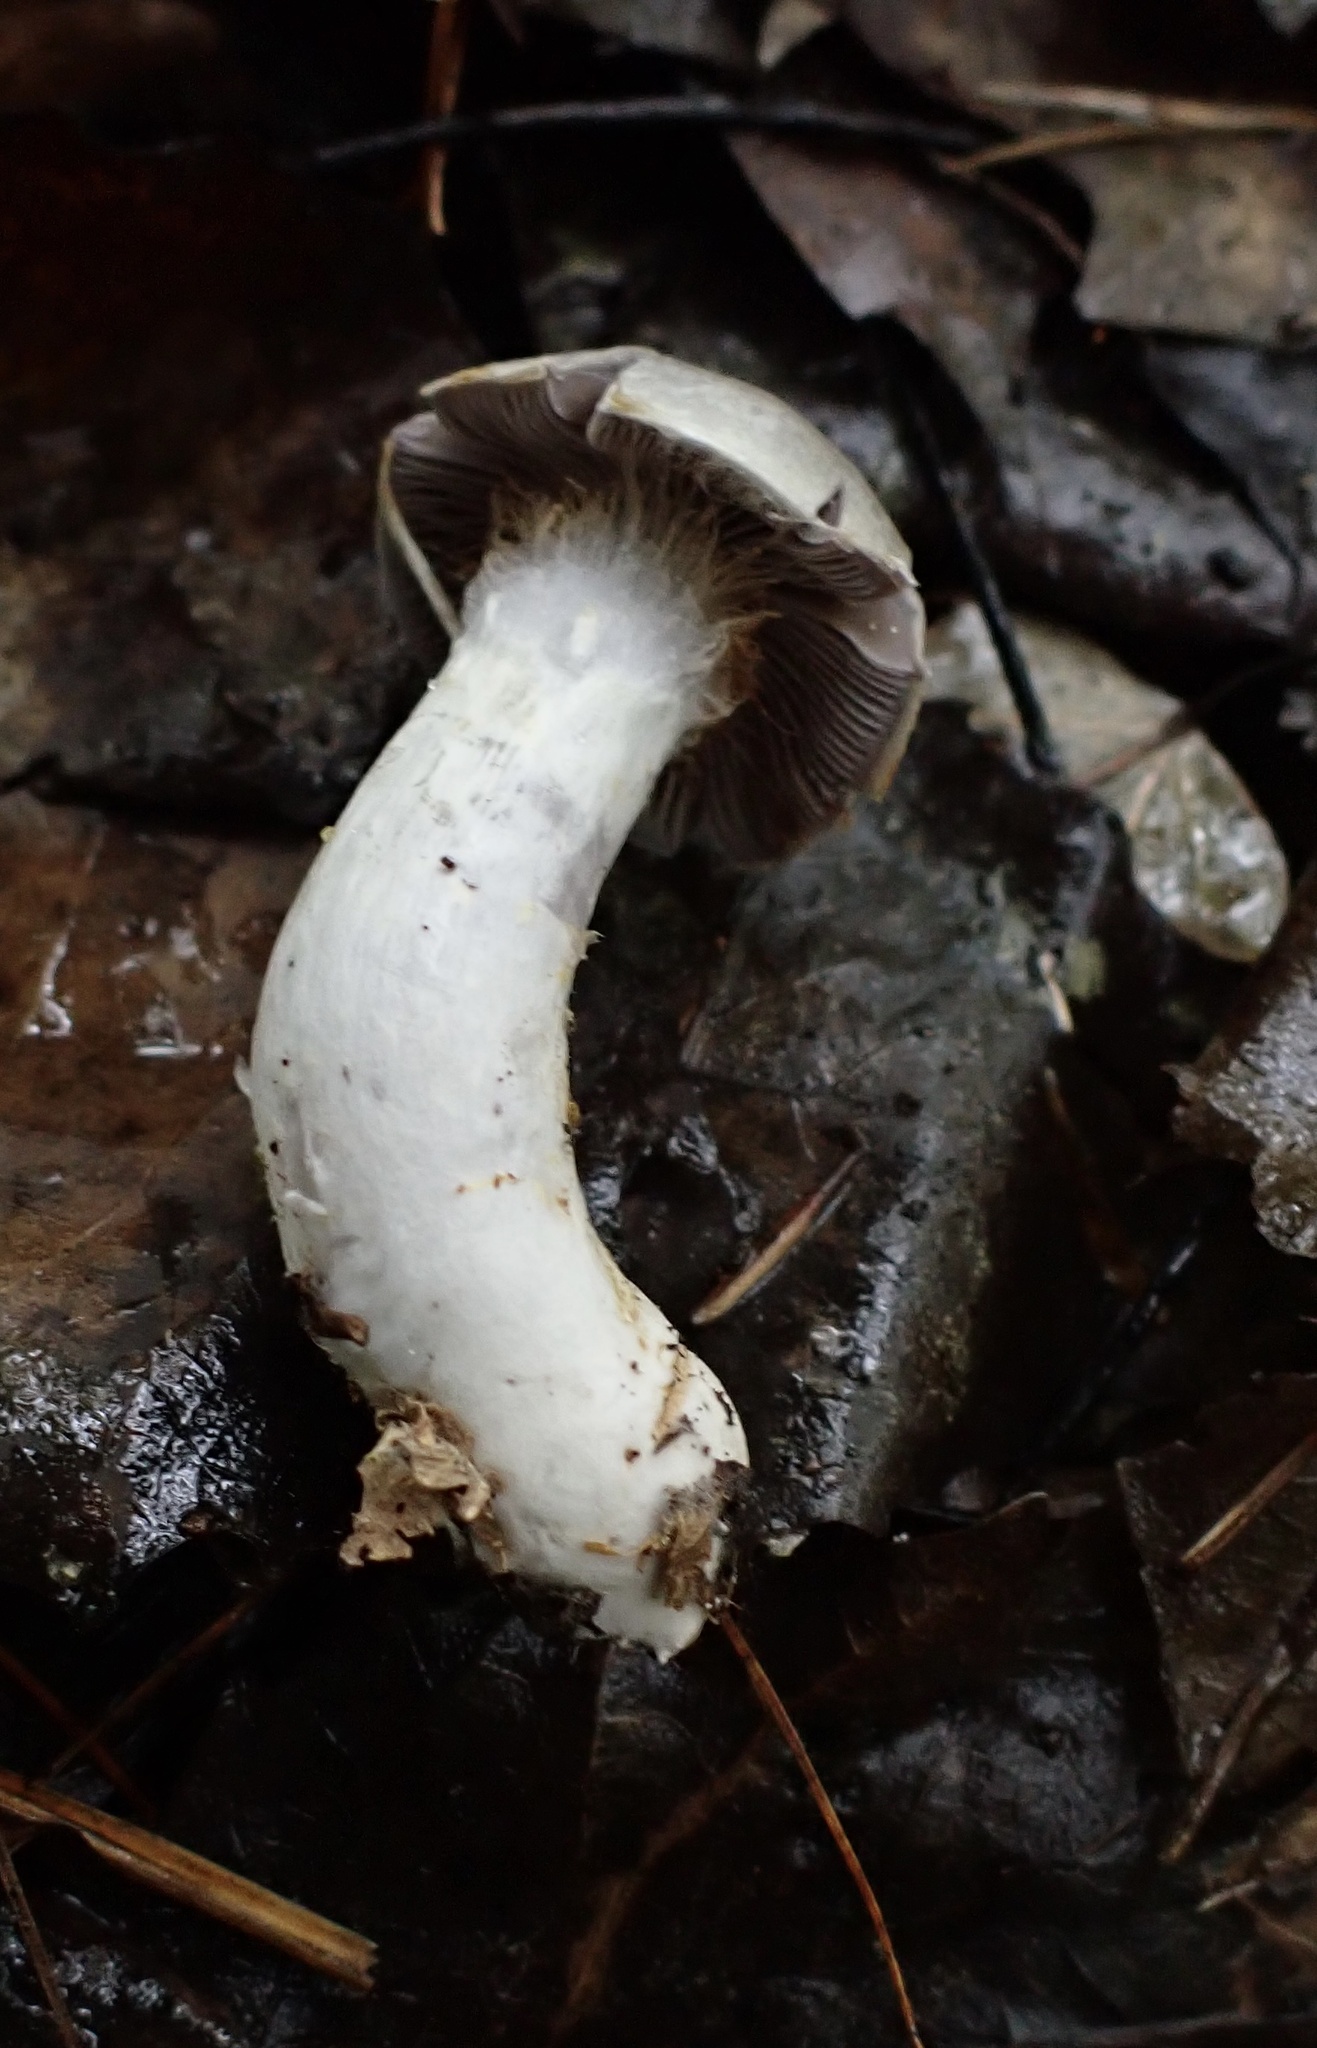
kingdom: Fungi
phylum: Basidiomycota
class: Agaricomycetes
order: Agaricales
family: Cortinariaceae
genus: Cortinarius
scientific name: Cortinarius paralbocyaneus
